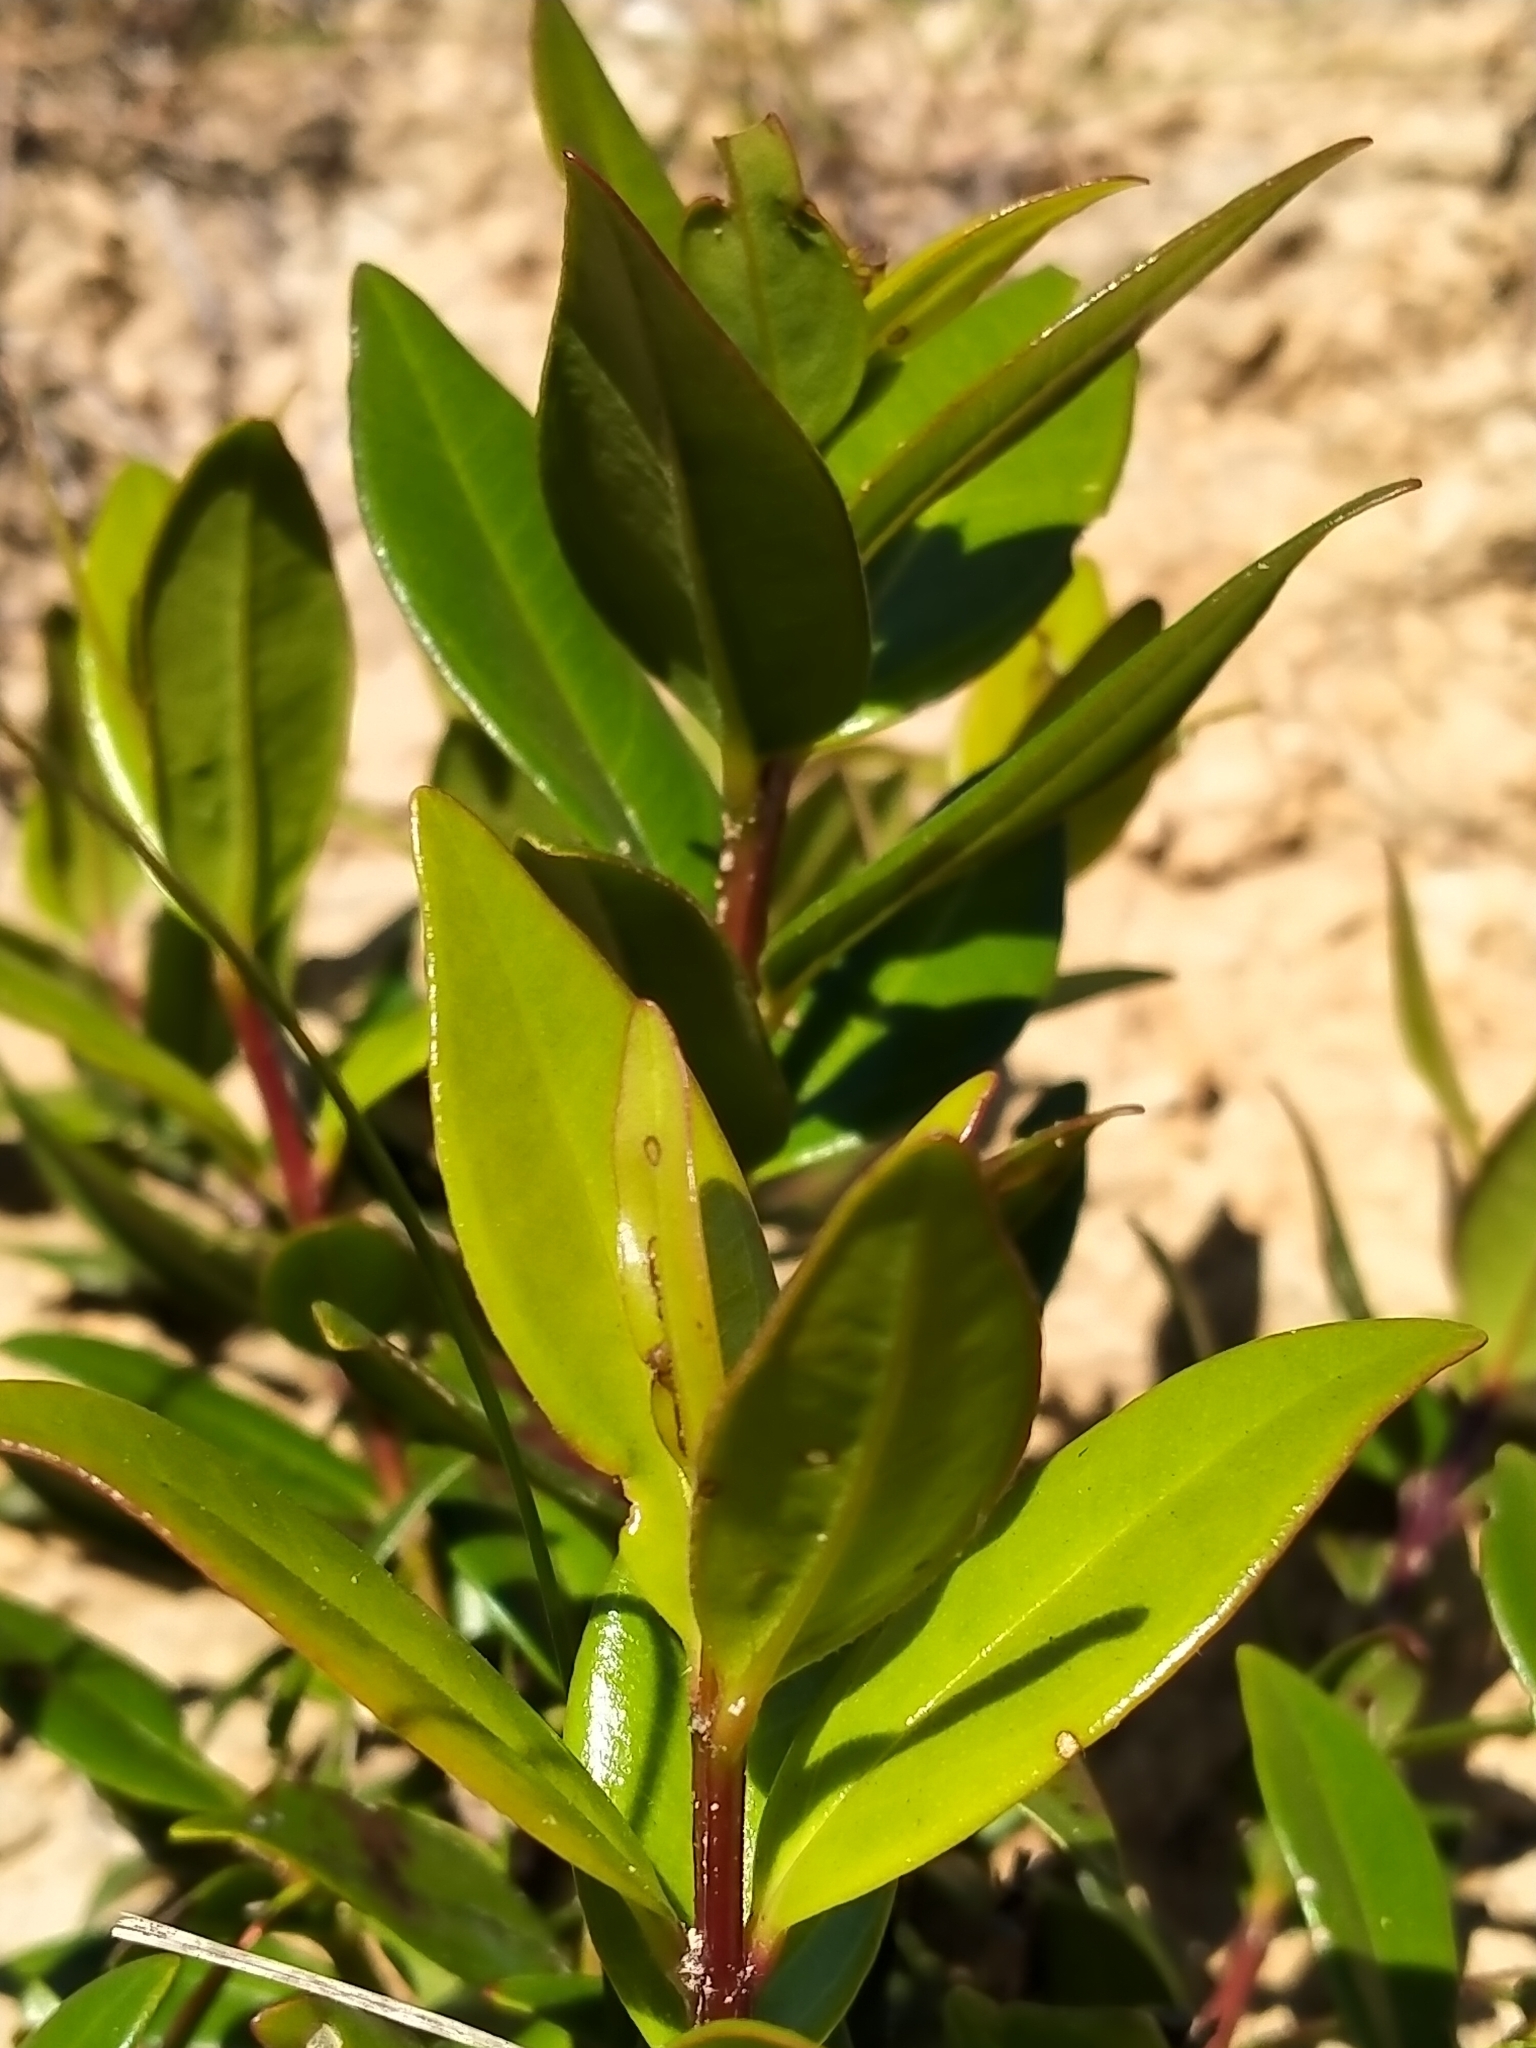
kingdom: Plantae
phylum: Tracheophyta
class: Magnoliopsida
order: Myrtales
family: Myrtaceae
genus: Metrosideros
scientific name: Metrosideros excelsa
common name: New zealand christmastree
